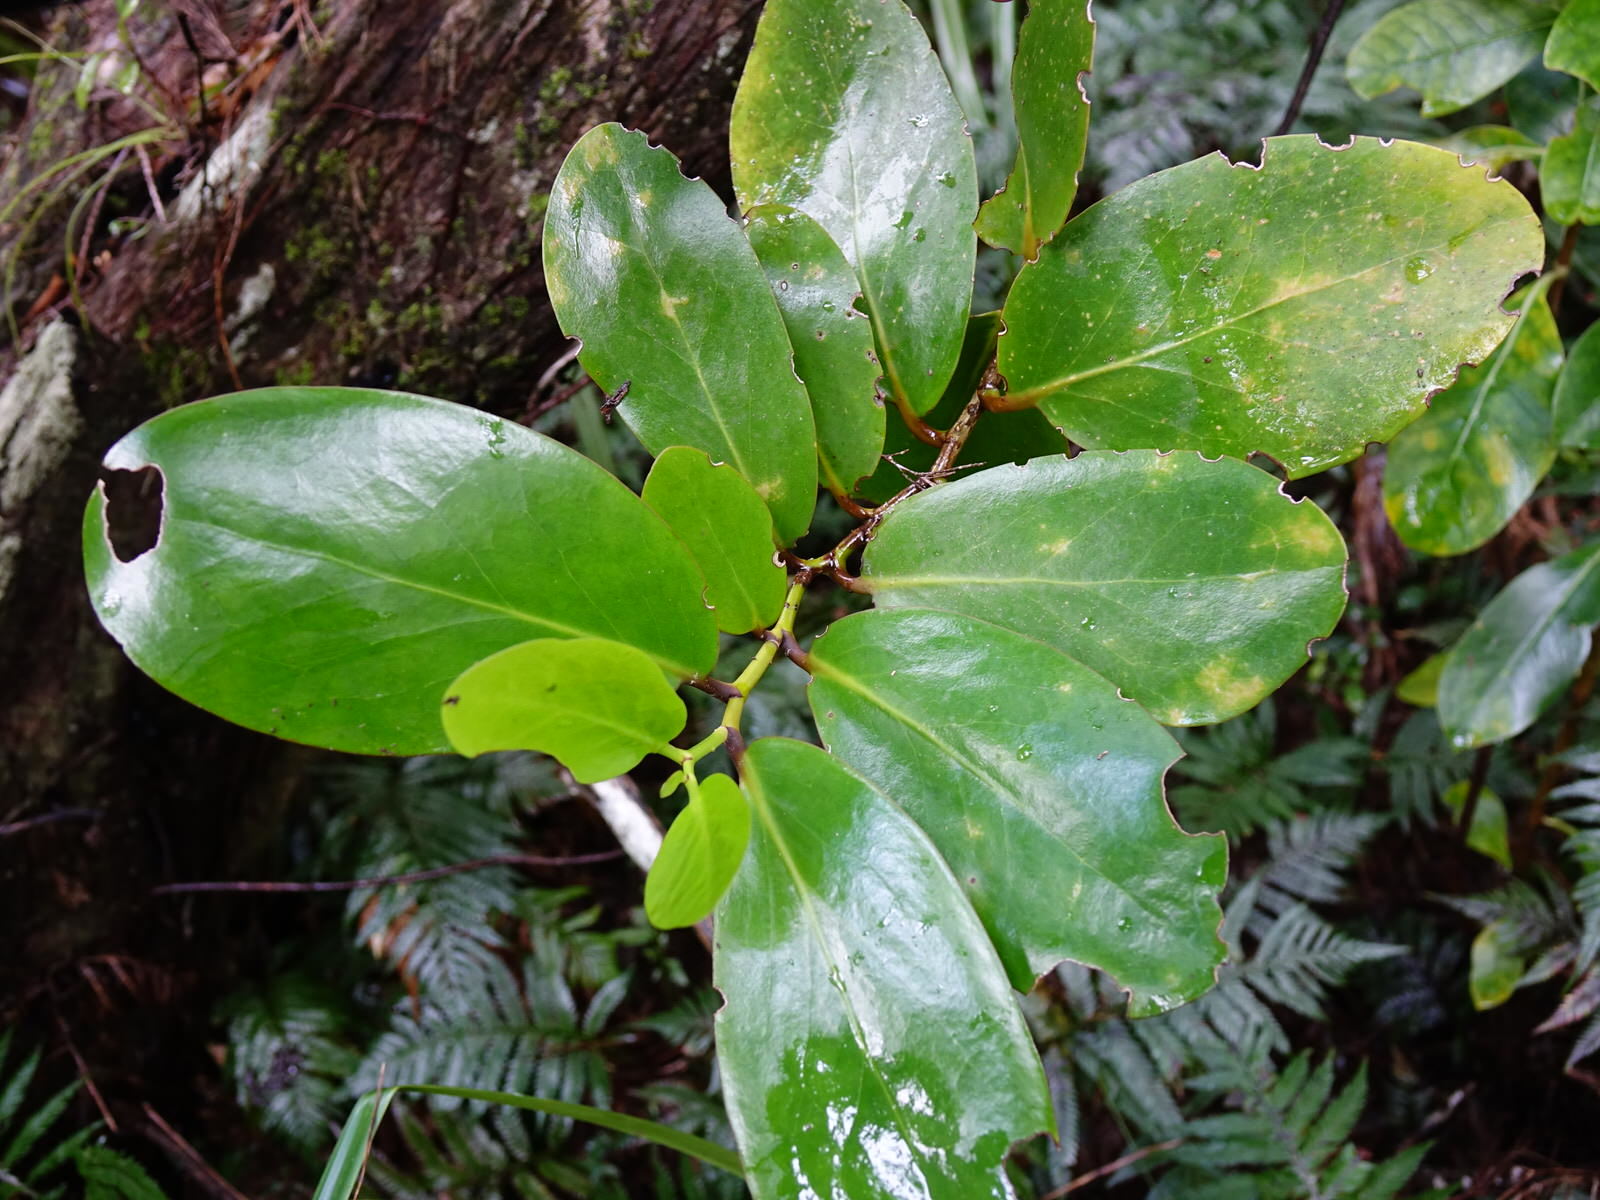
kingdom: Plantae
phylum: Tracheophyta
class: Magnoliopsida
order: Apiales
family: Griseliniaceae
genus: Griselinia
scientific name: Griselinia lucida
